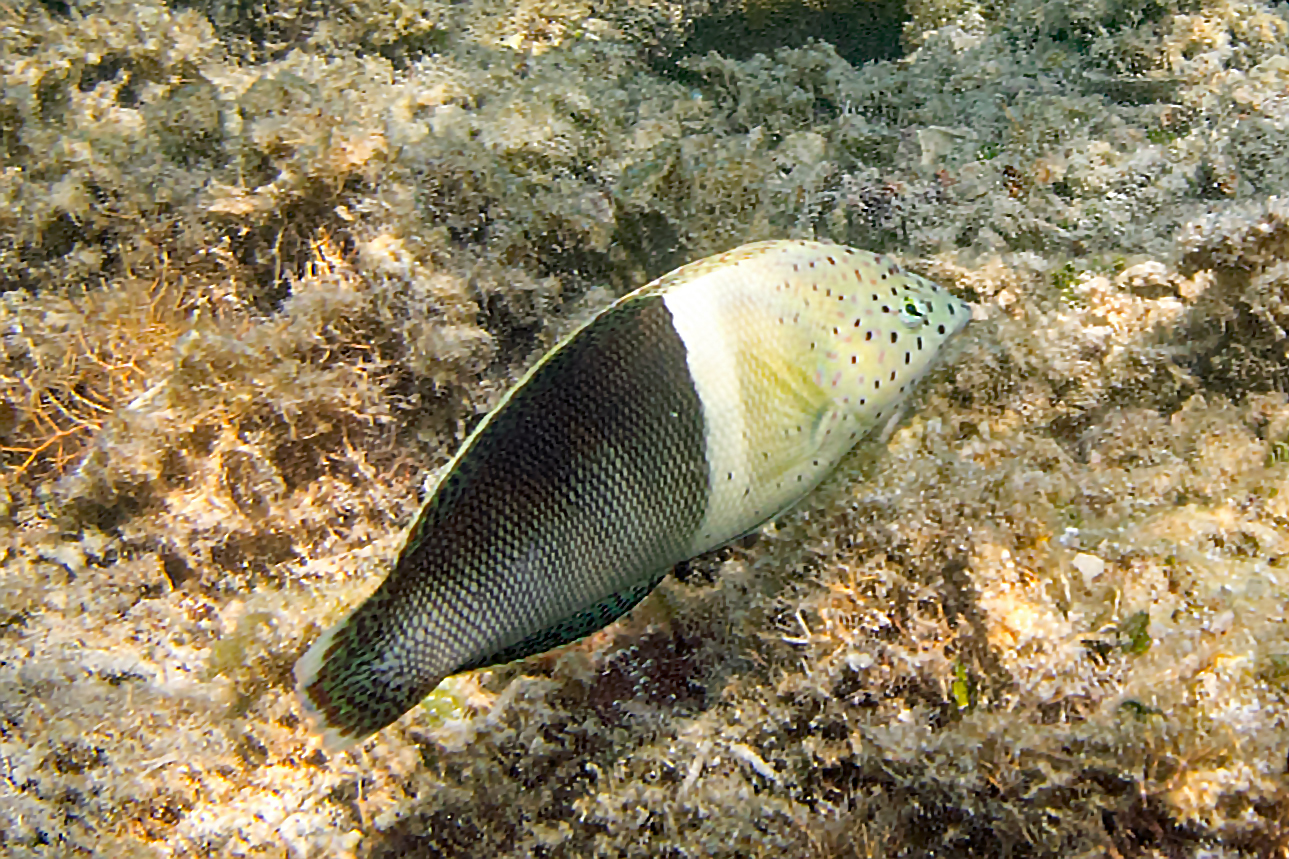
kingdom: Animalia
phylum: Chordata
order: Perciformes
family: Labridae
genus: Coris
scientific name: Coris aygula
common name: Clown coris
